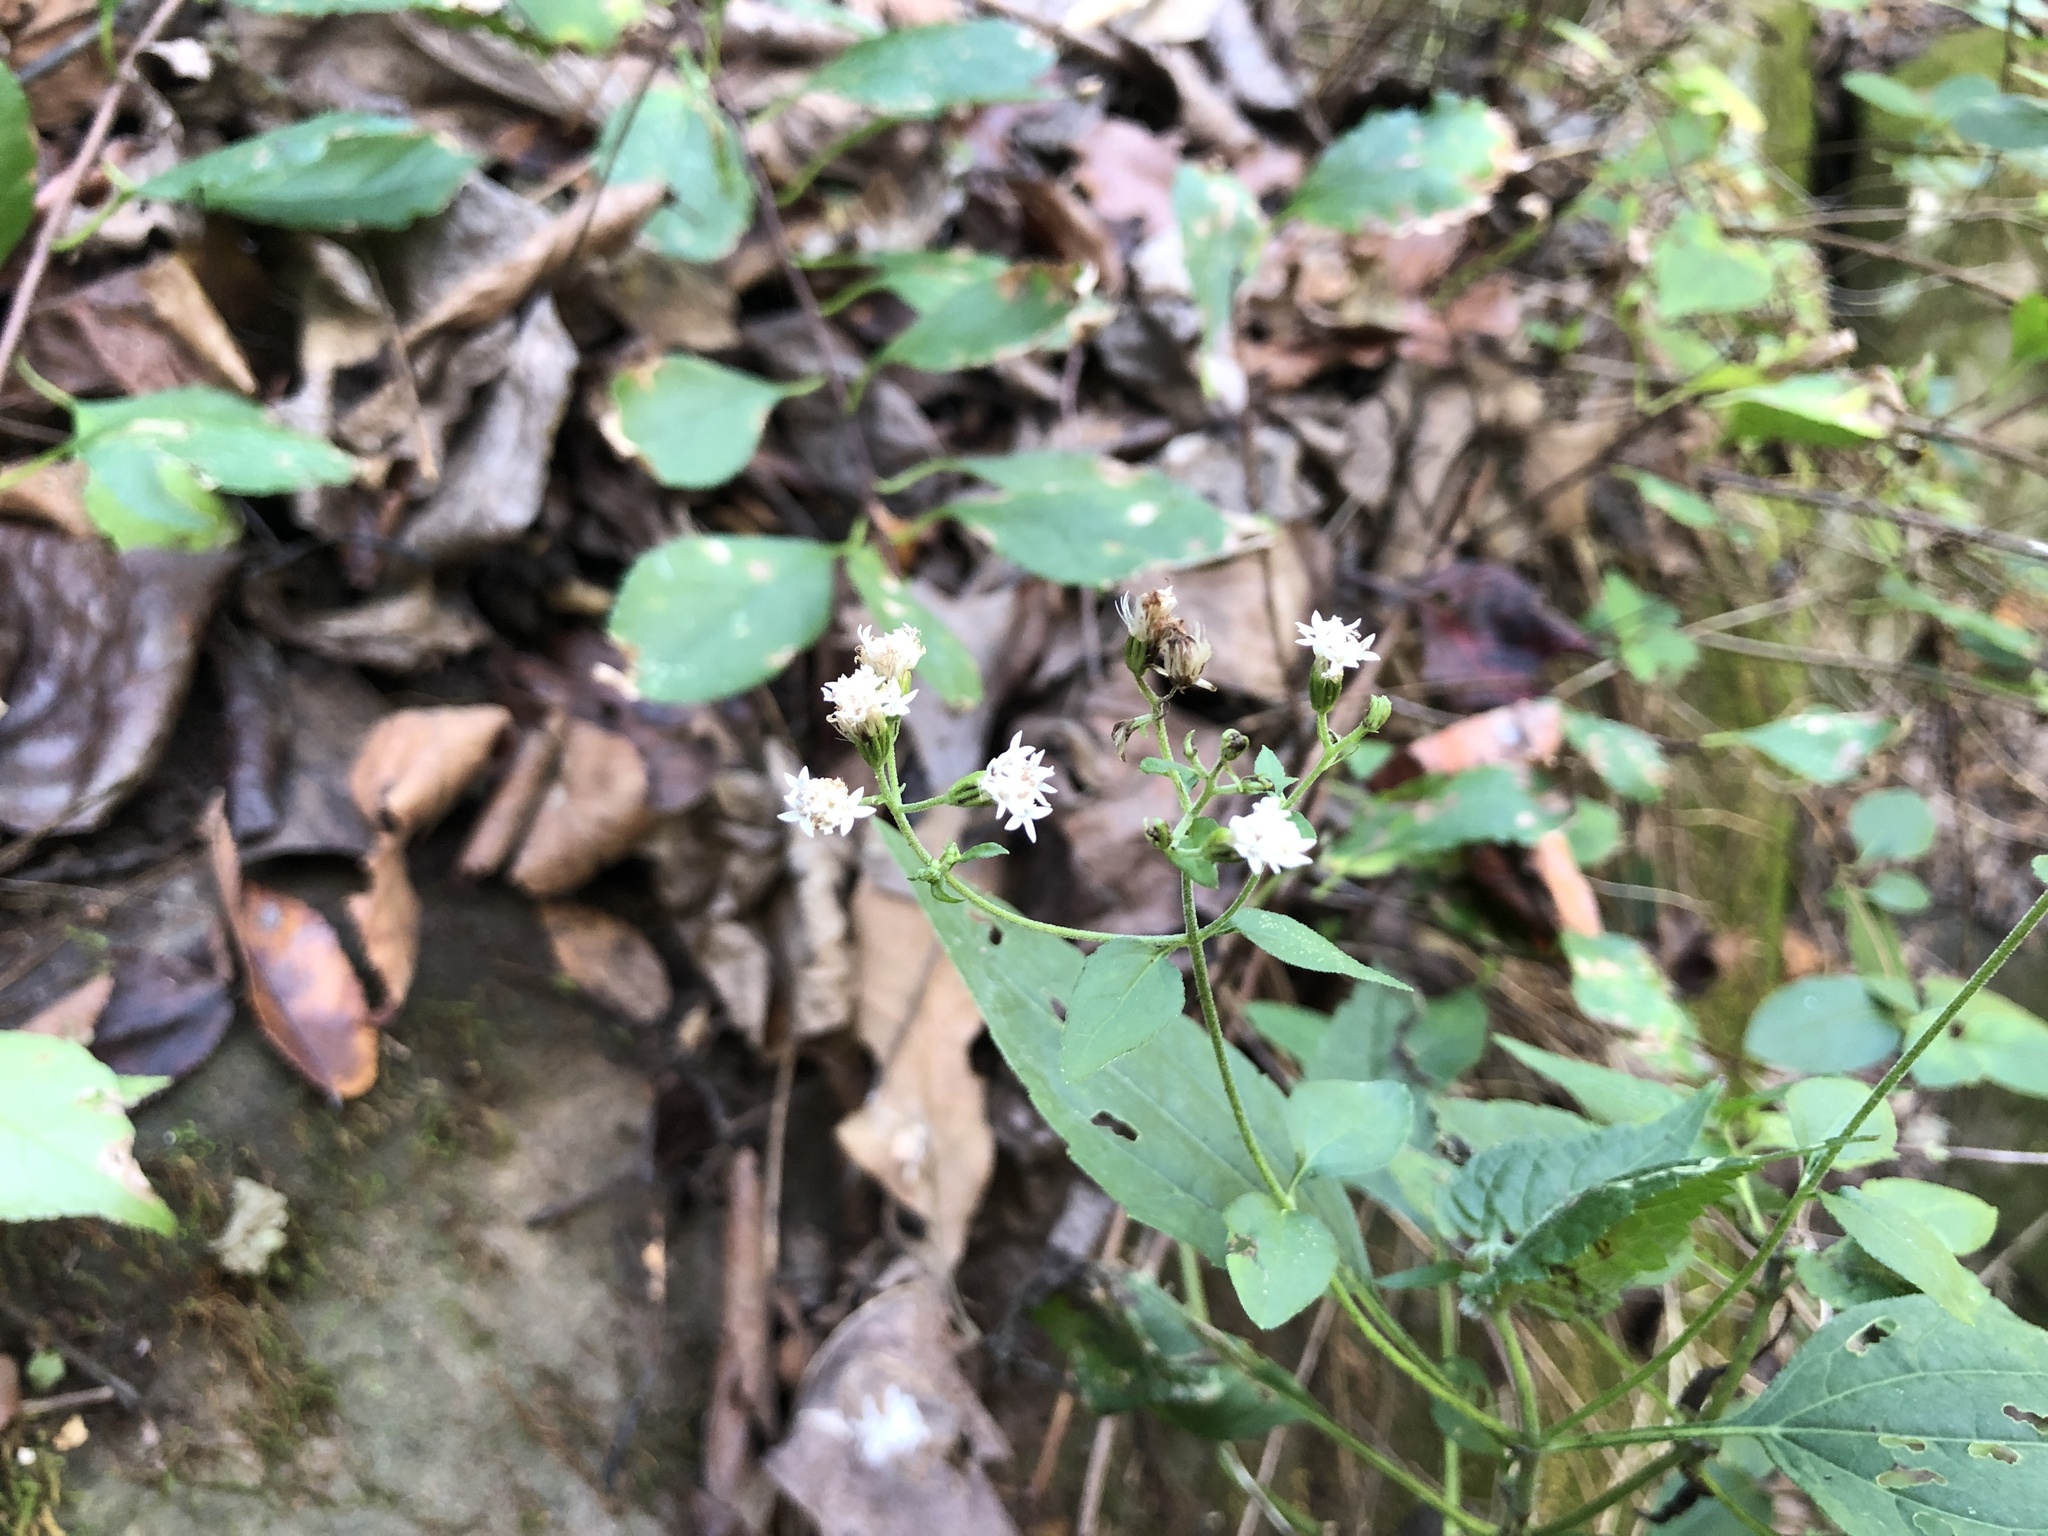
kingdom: Plantae
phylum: Tracheophyta
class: Magnoliopsida
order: Asterales
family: Asteraceae
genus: Ageratina
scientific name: Ageratina altissima
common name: White snakeroot
